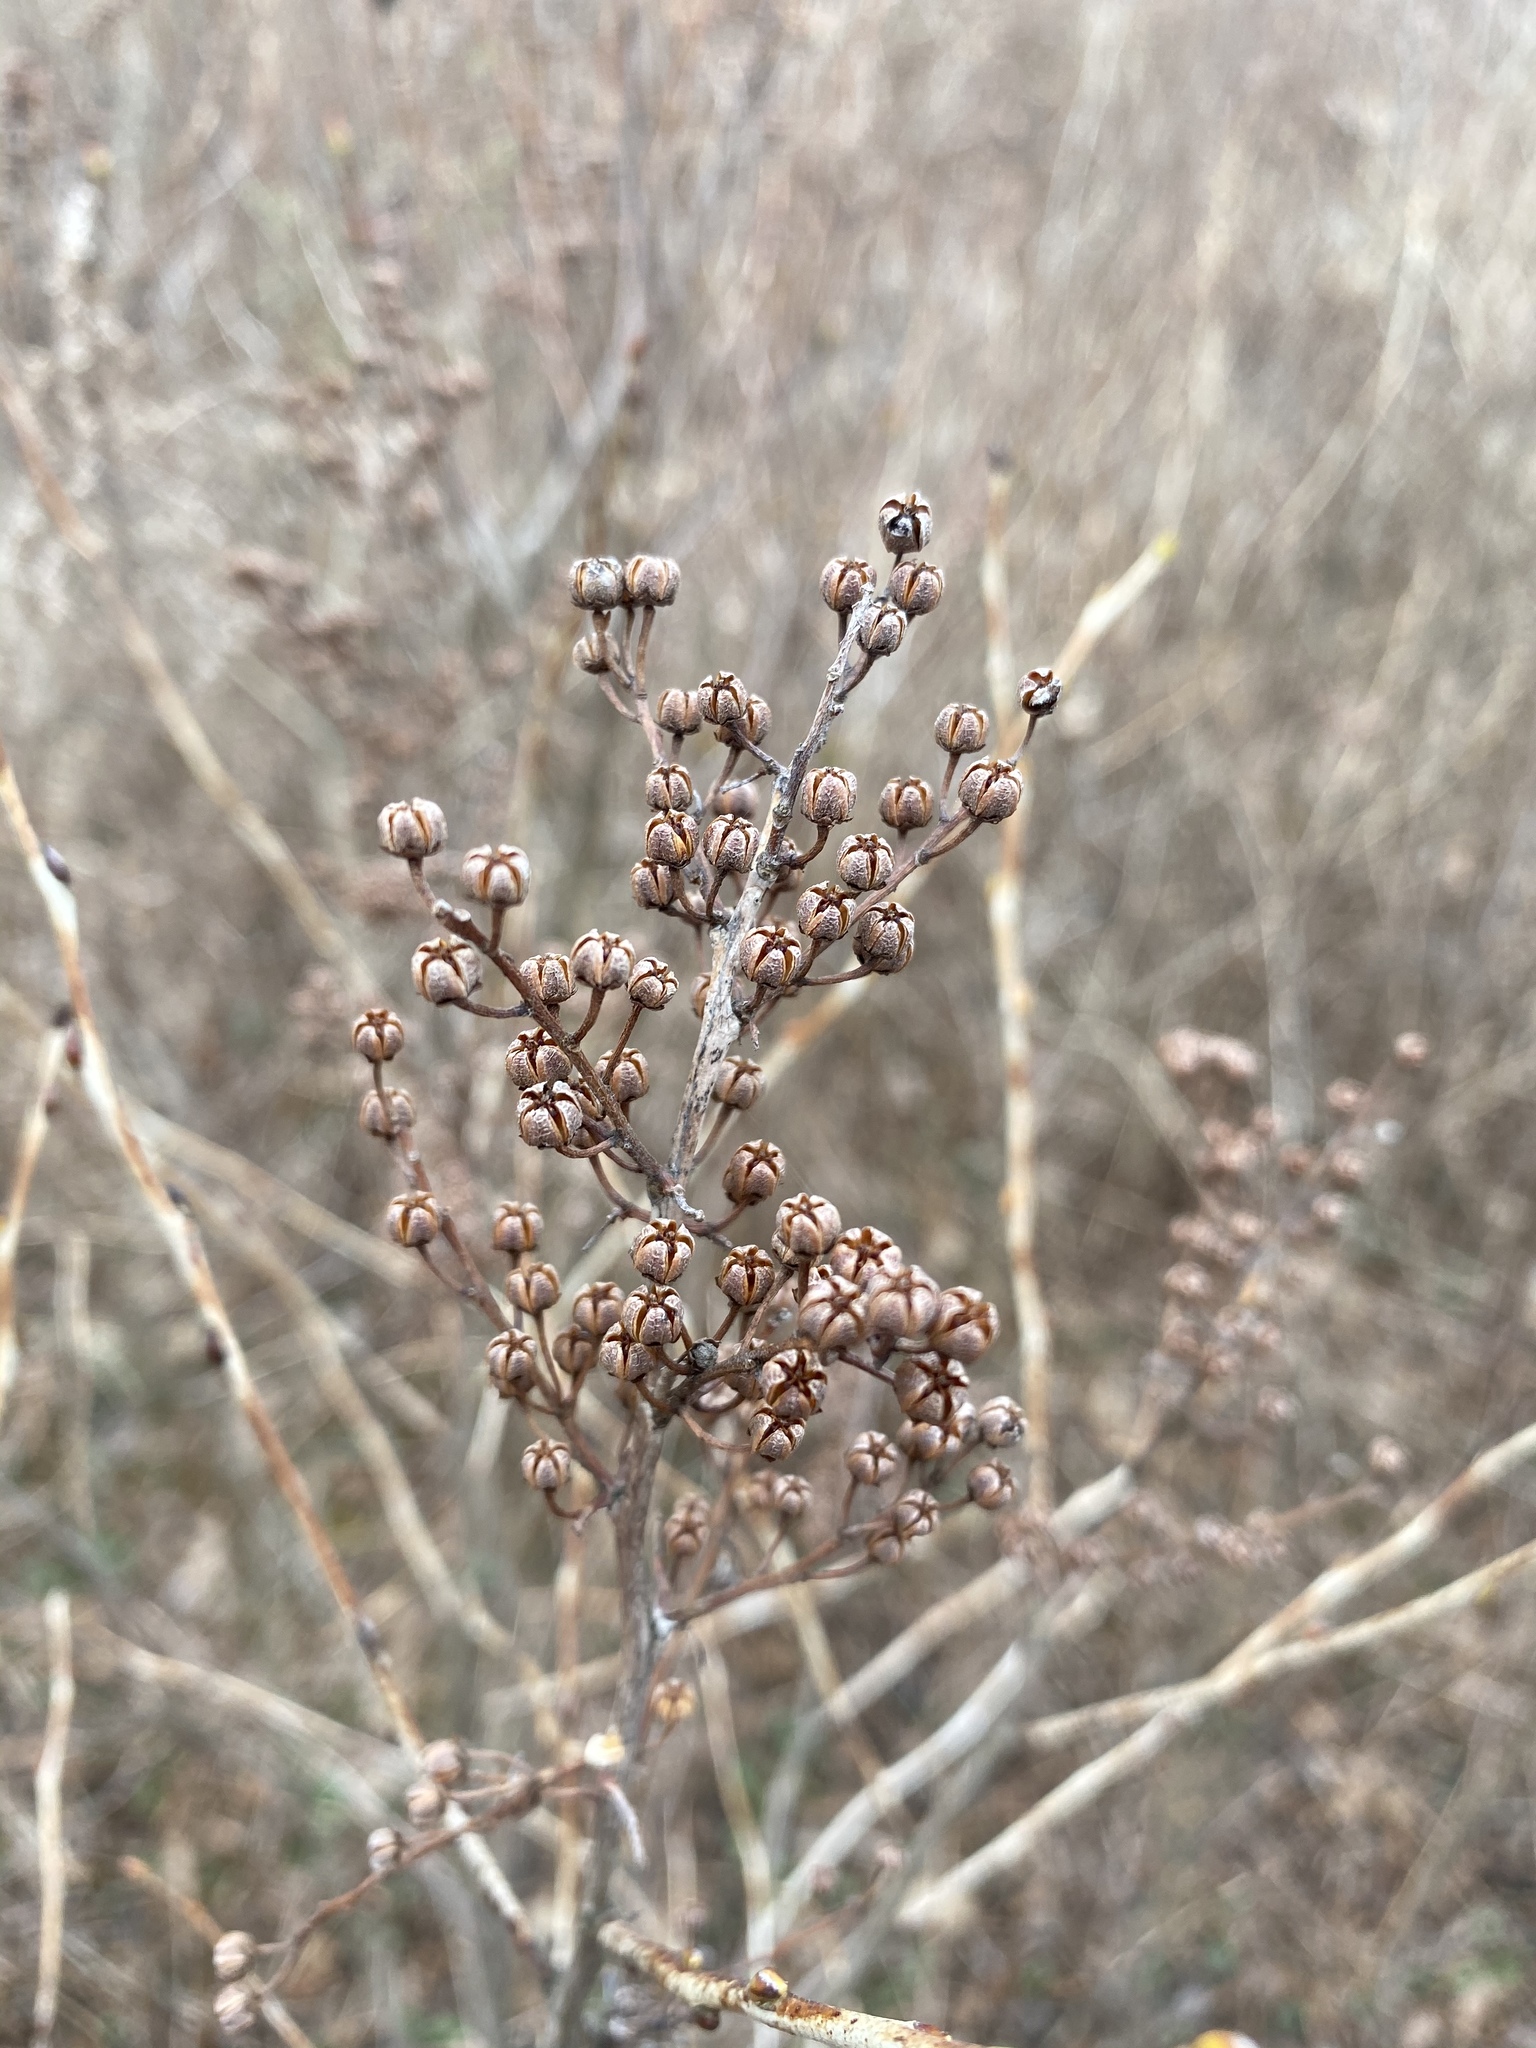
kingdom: Plantae
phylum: Tracheophyta
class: Magnoliopsida
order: Ericales
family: Ericaceae
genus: Lyonia
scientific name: Lyonia ligustrina
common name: Maleberry
